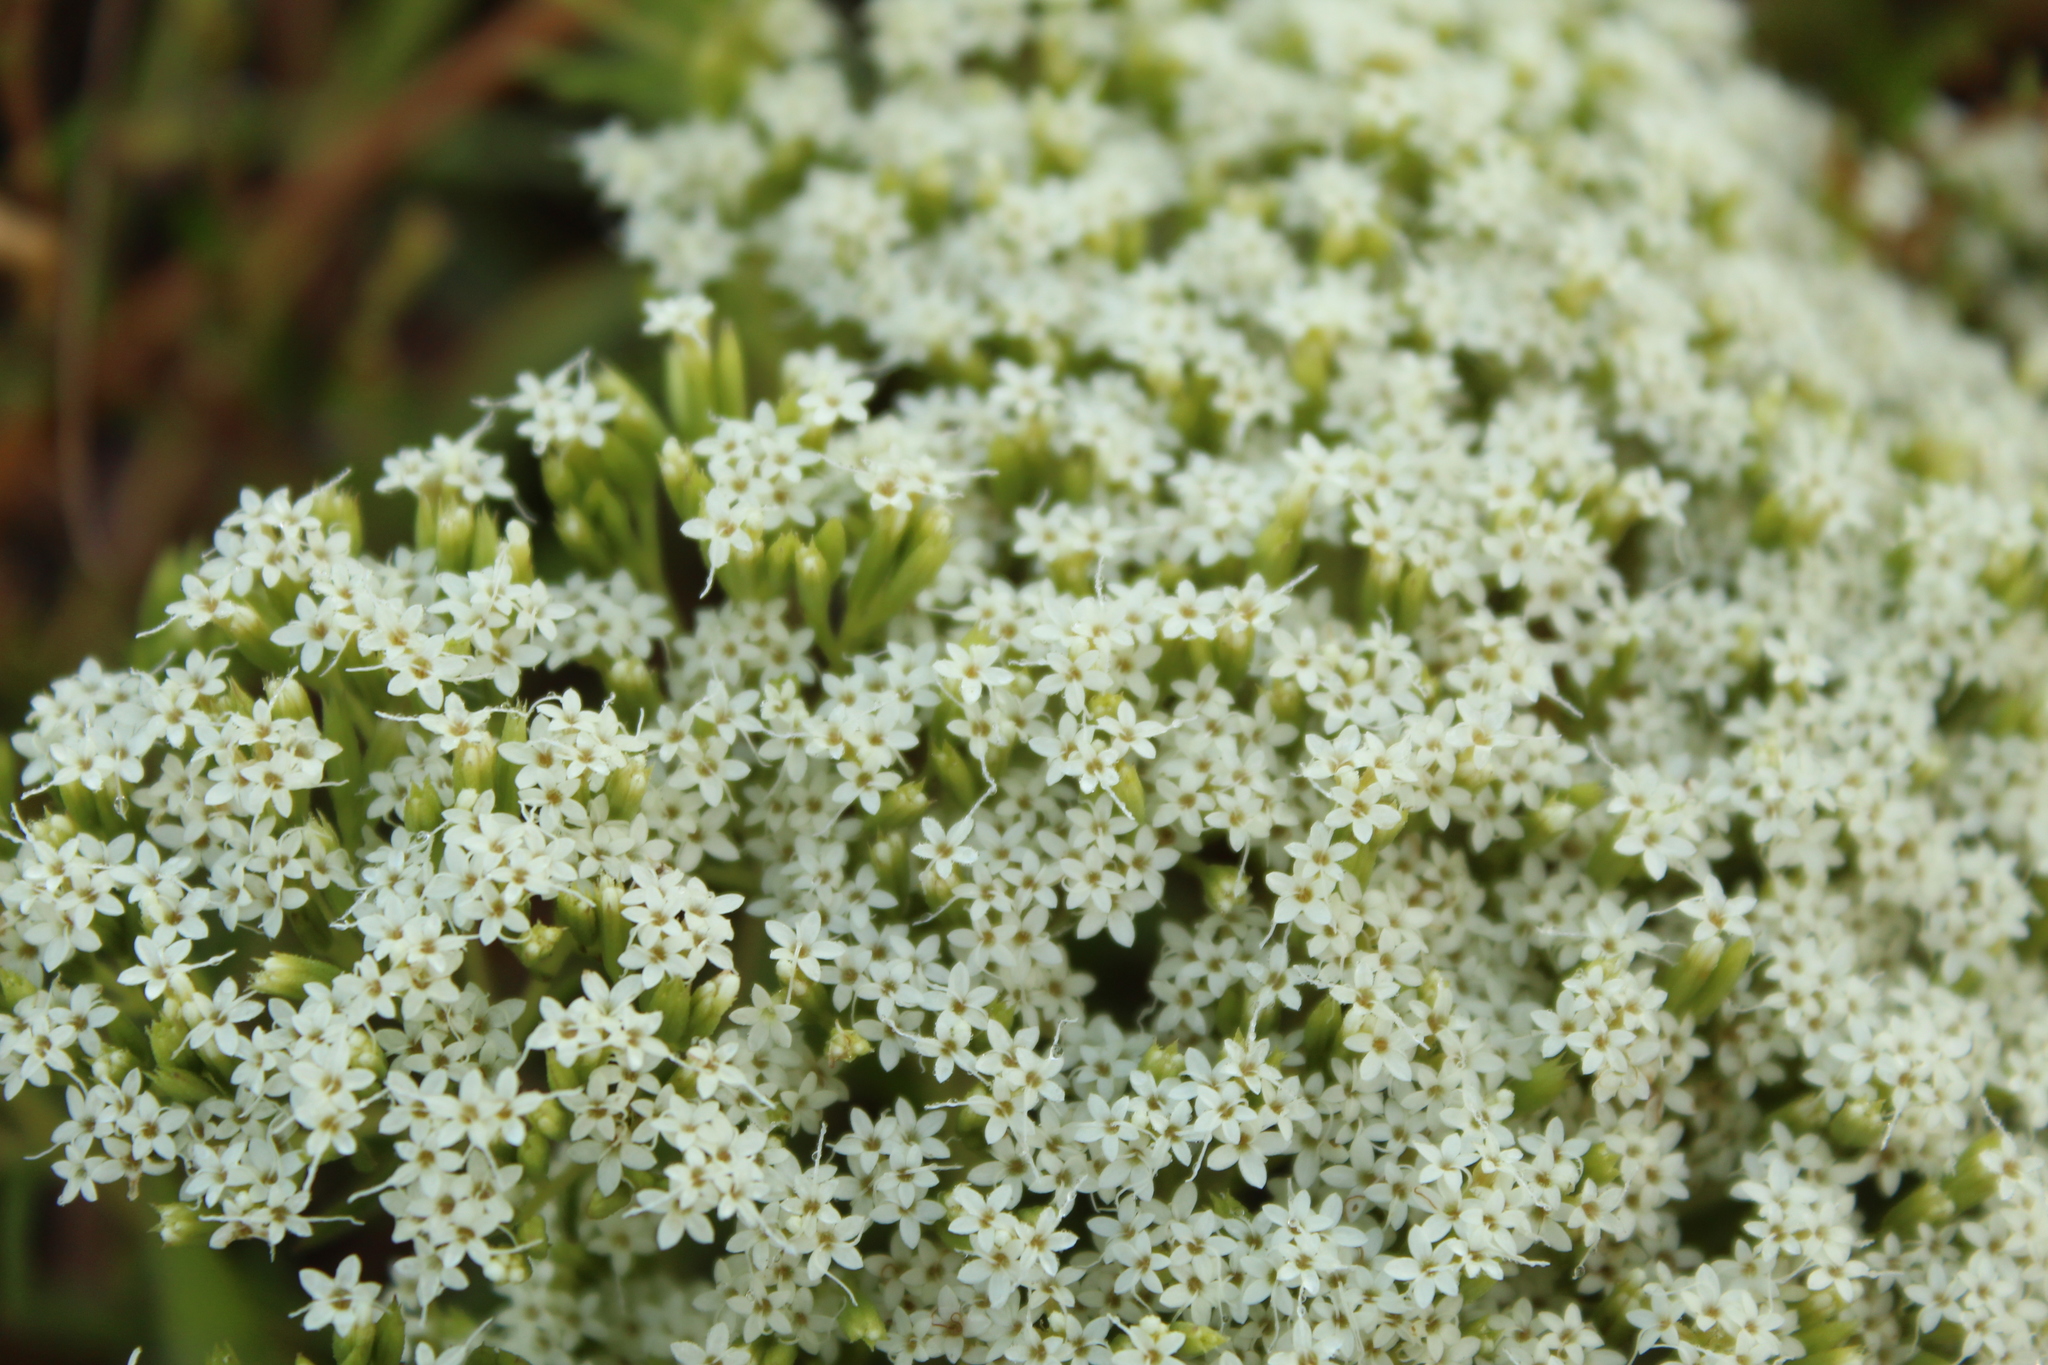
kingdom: Plantae
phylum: Tracheophyta
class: Magnoliopsida
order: Asterales
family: Asteraceae
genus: Stevia
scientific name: Stevia serrata
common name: Sawtooth candyleaf
